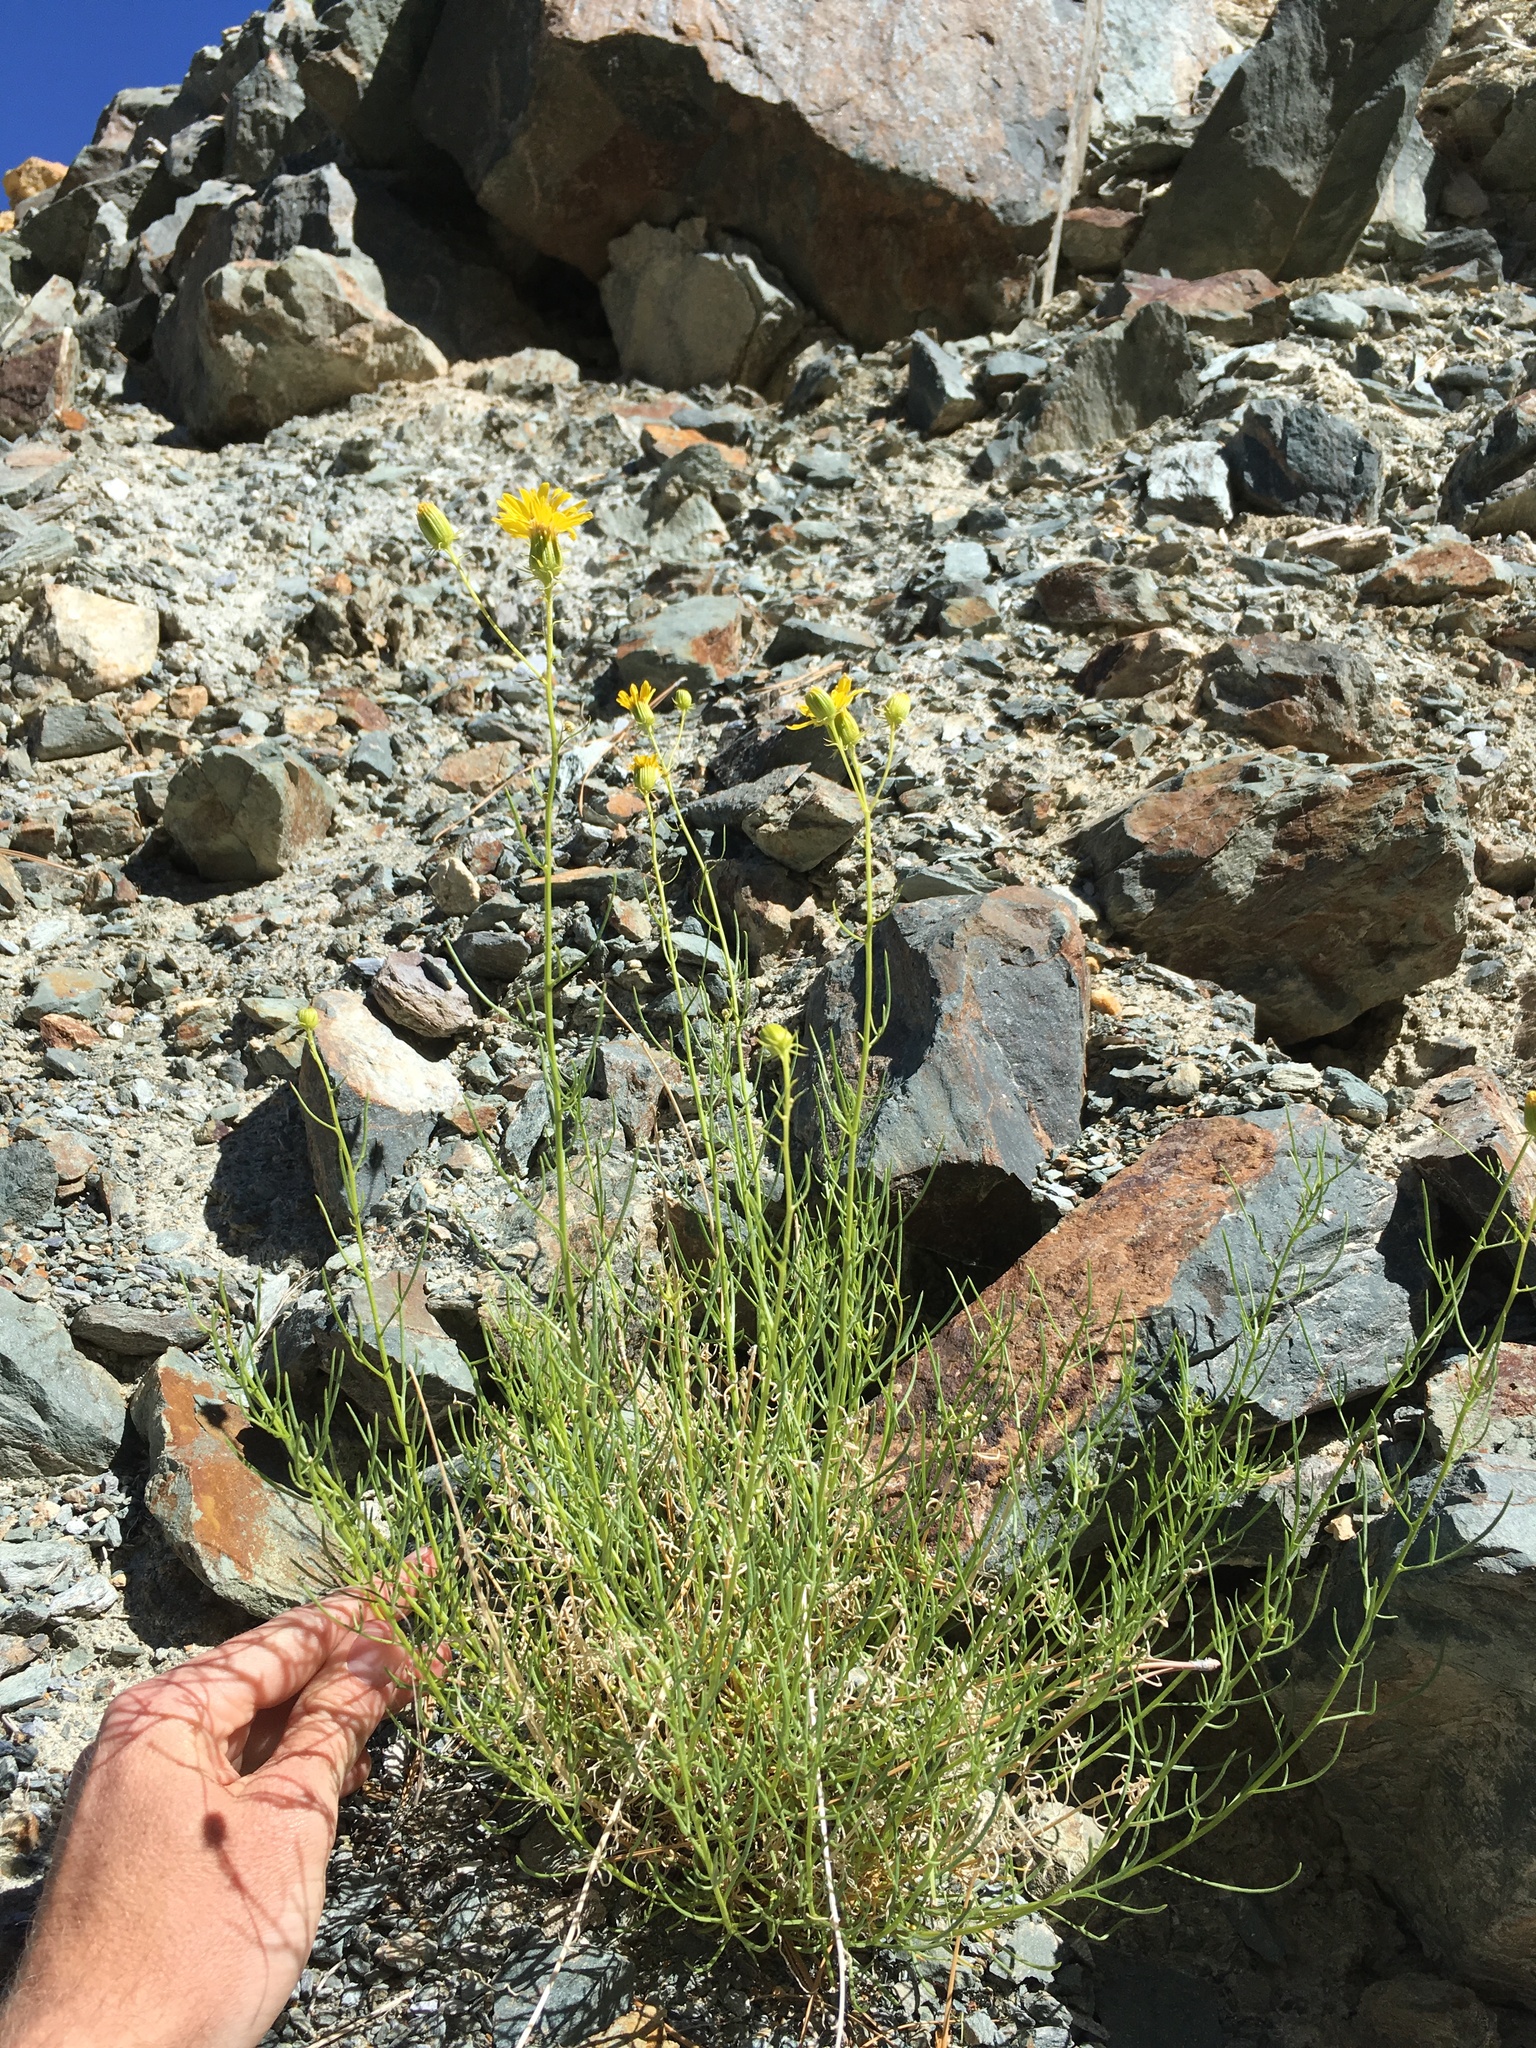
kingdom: Plantae
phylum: Tracheophyta
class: Magnoliopsida
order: Asterales
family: Asteraceae
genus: Senecio
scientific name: Senecio flaccidus
